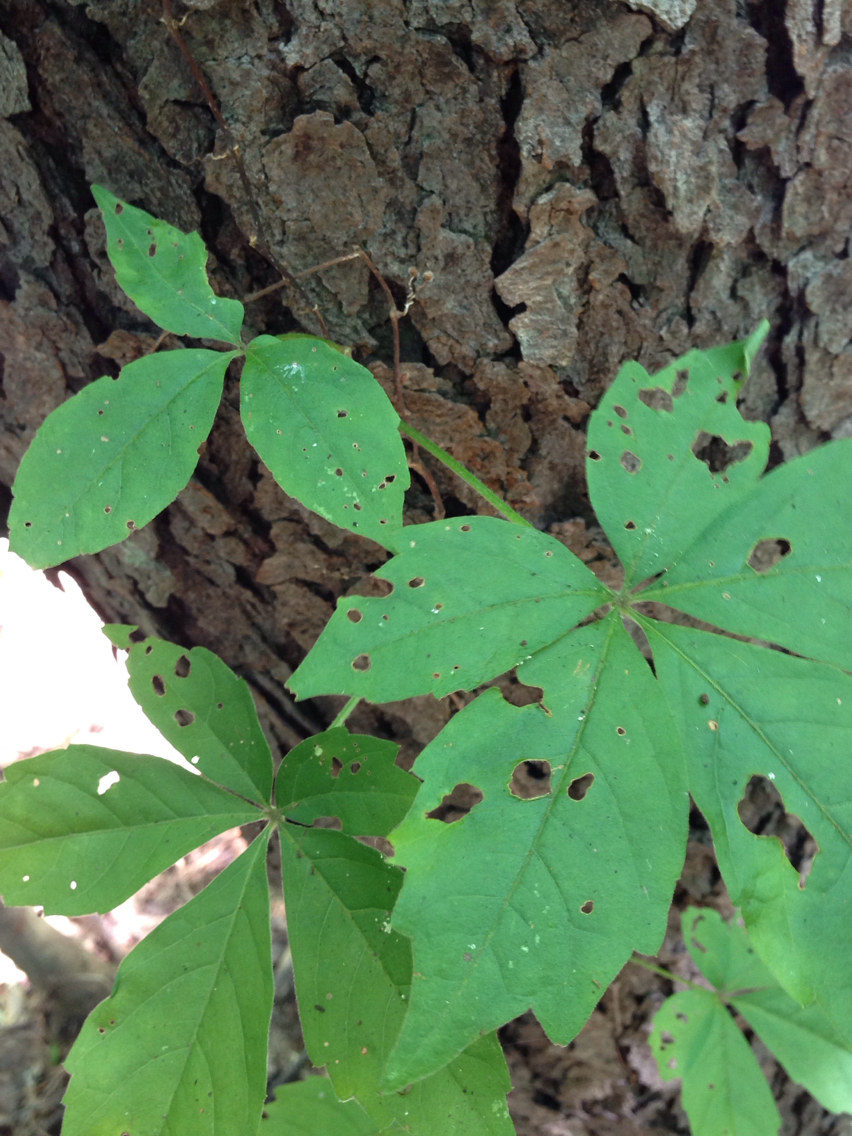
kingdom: Plantae
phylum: Tracheophyta
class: Magnoliopsida
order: Vitales
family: Vitaceae
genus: Parthenocissus
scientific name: Parthenocissus quinquefolia
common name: Virginia-creeper
